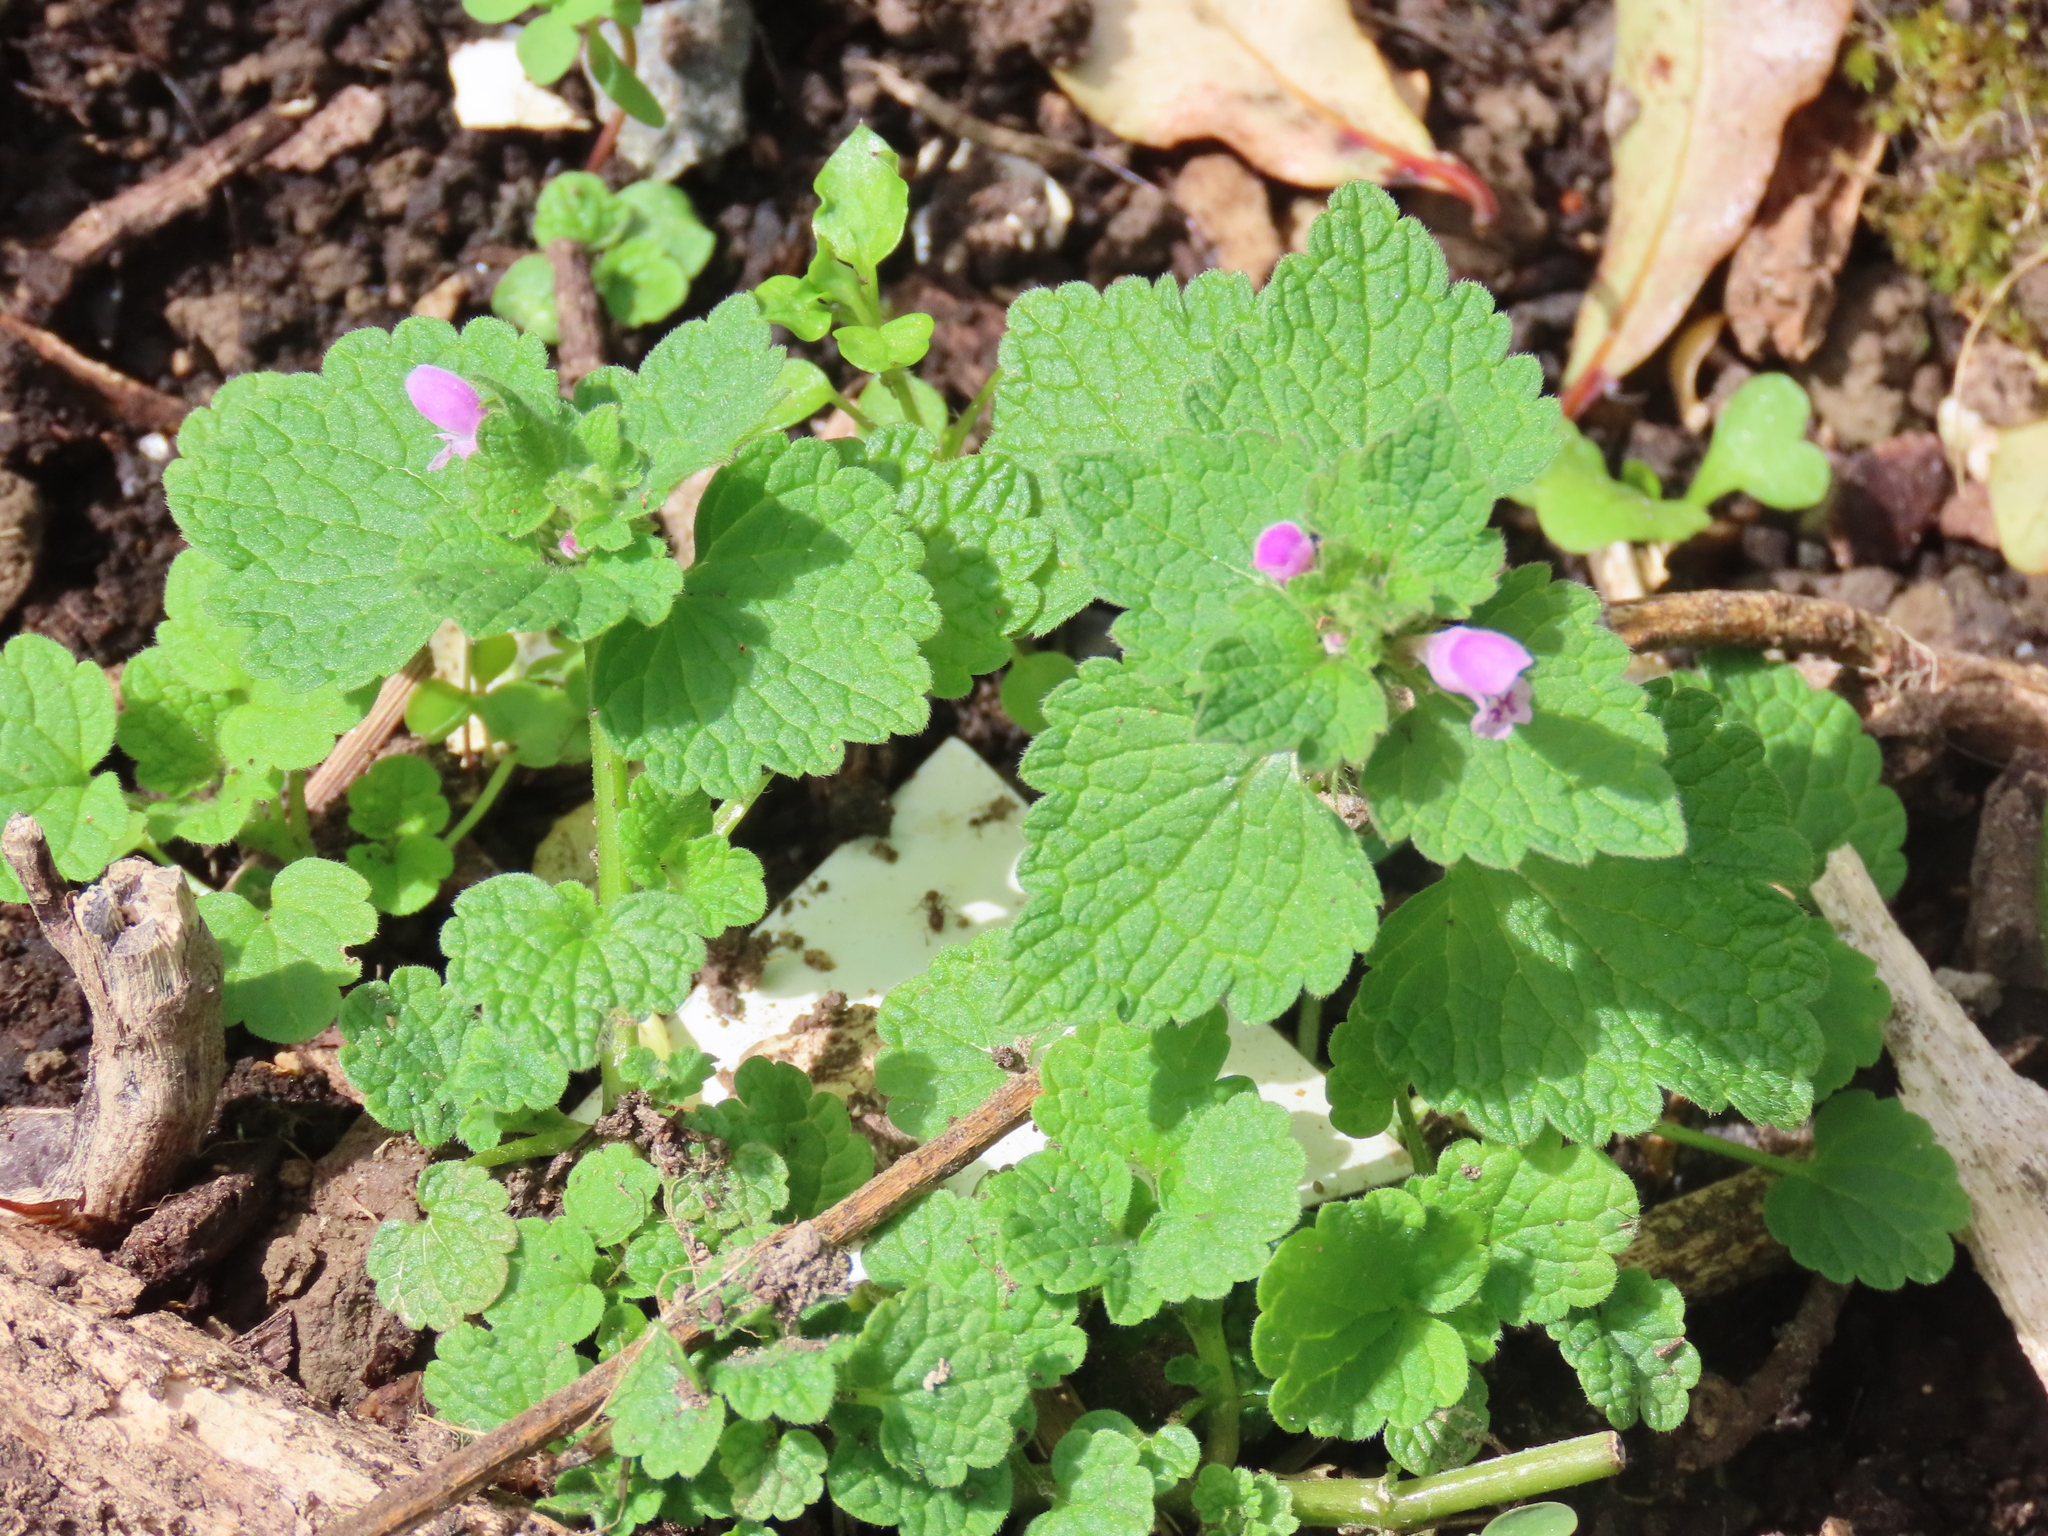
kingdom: Plantae
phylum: Tracheophyta
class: Magnoliopsida
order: Lamiales
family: Lamiaceae
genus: Lamium
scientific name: Lamium purpureum
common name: Red dead-nettle
